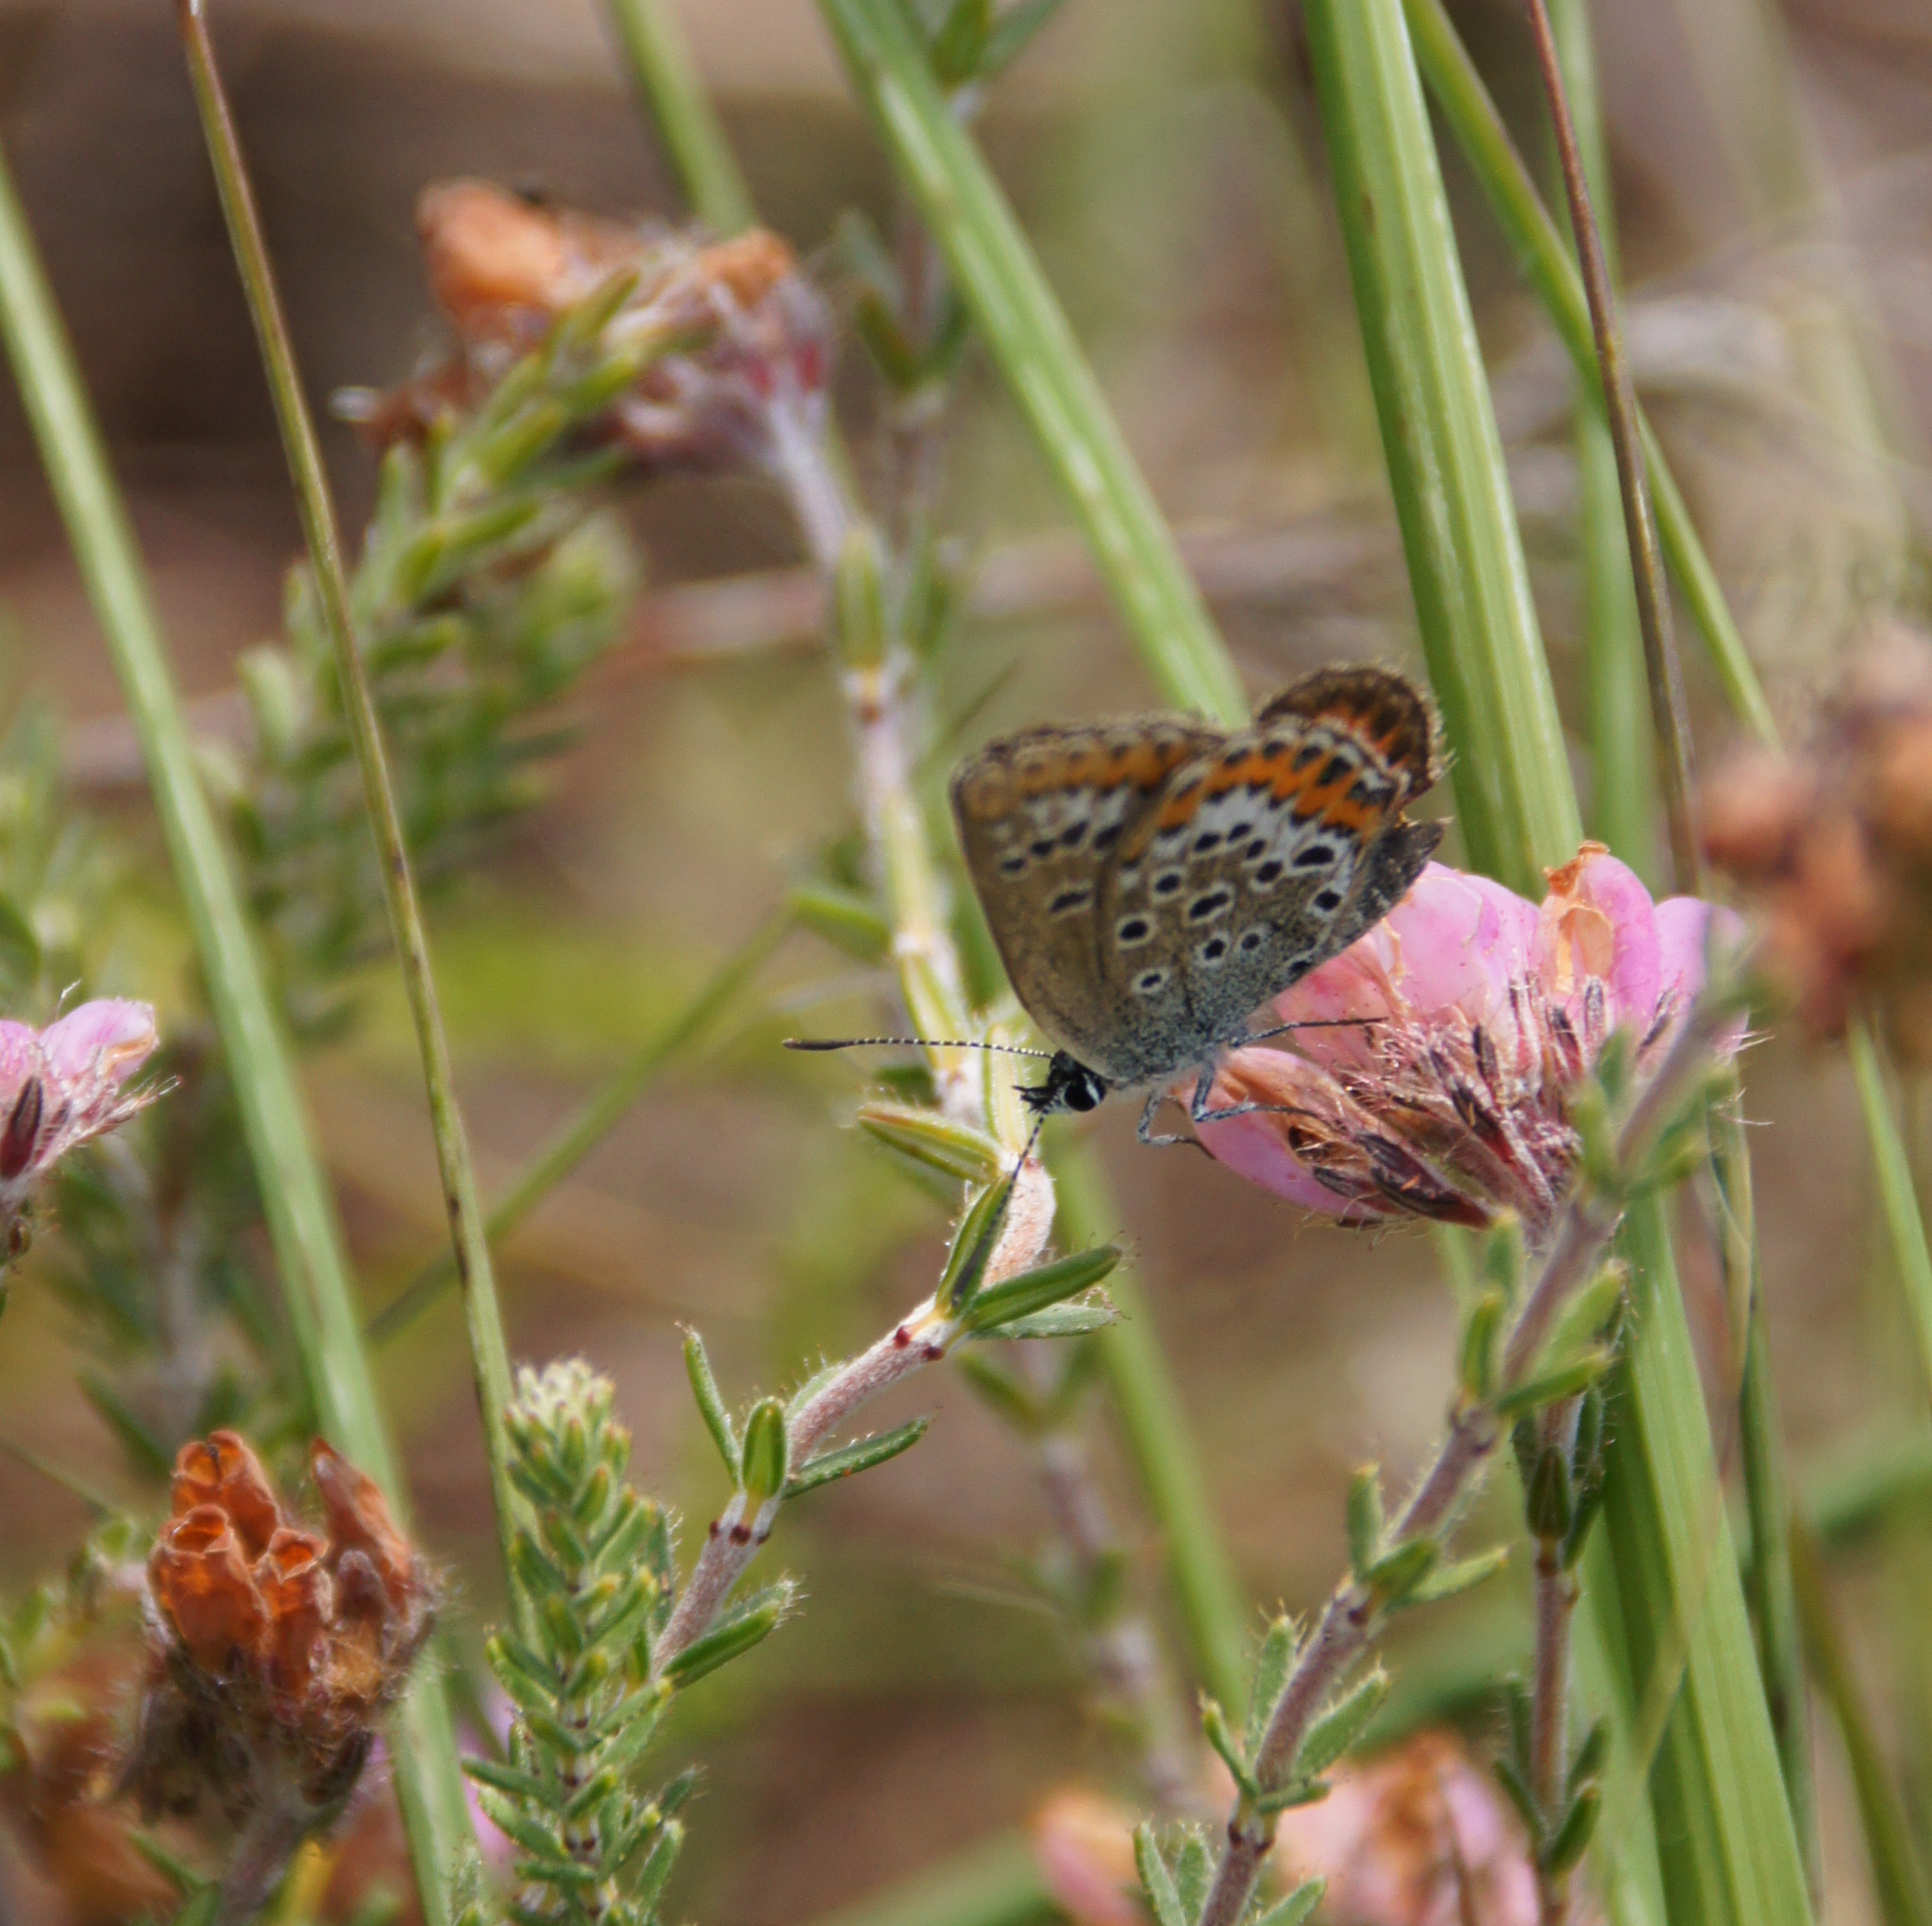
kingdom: Animalia
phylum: Arthropoda
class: Insecta
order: Lepidoptera
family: Lycaenidae
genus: Plebejus
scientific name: Plebejus argus
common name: Silver-studded blue
